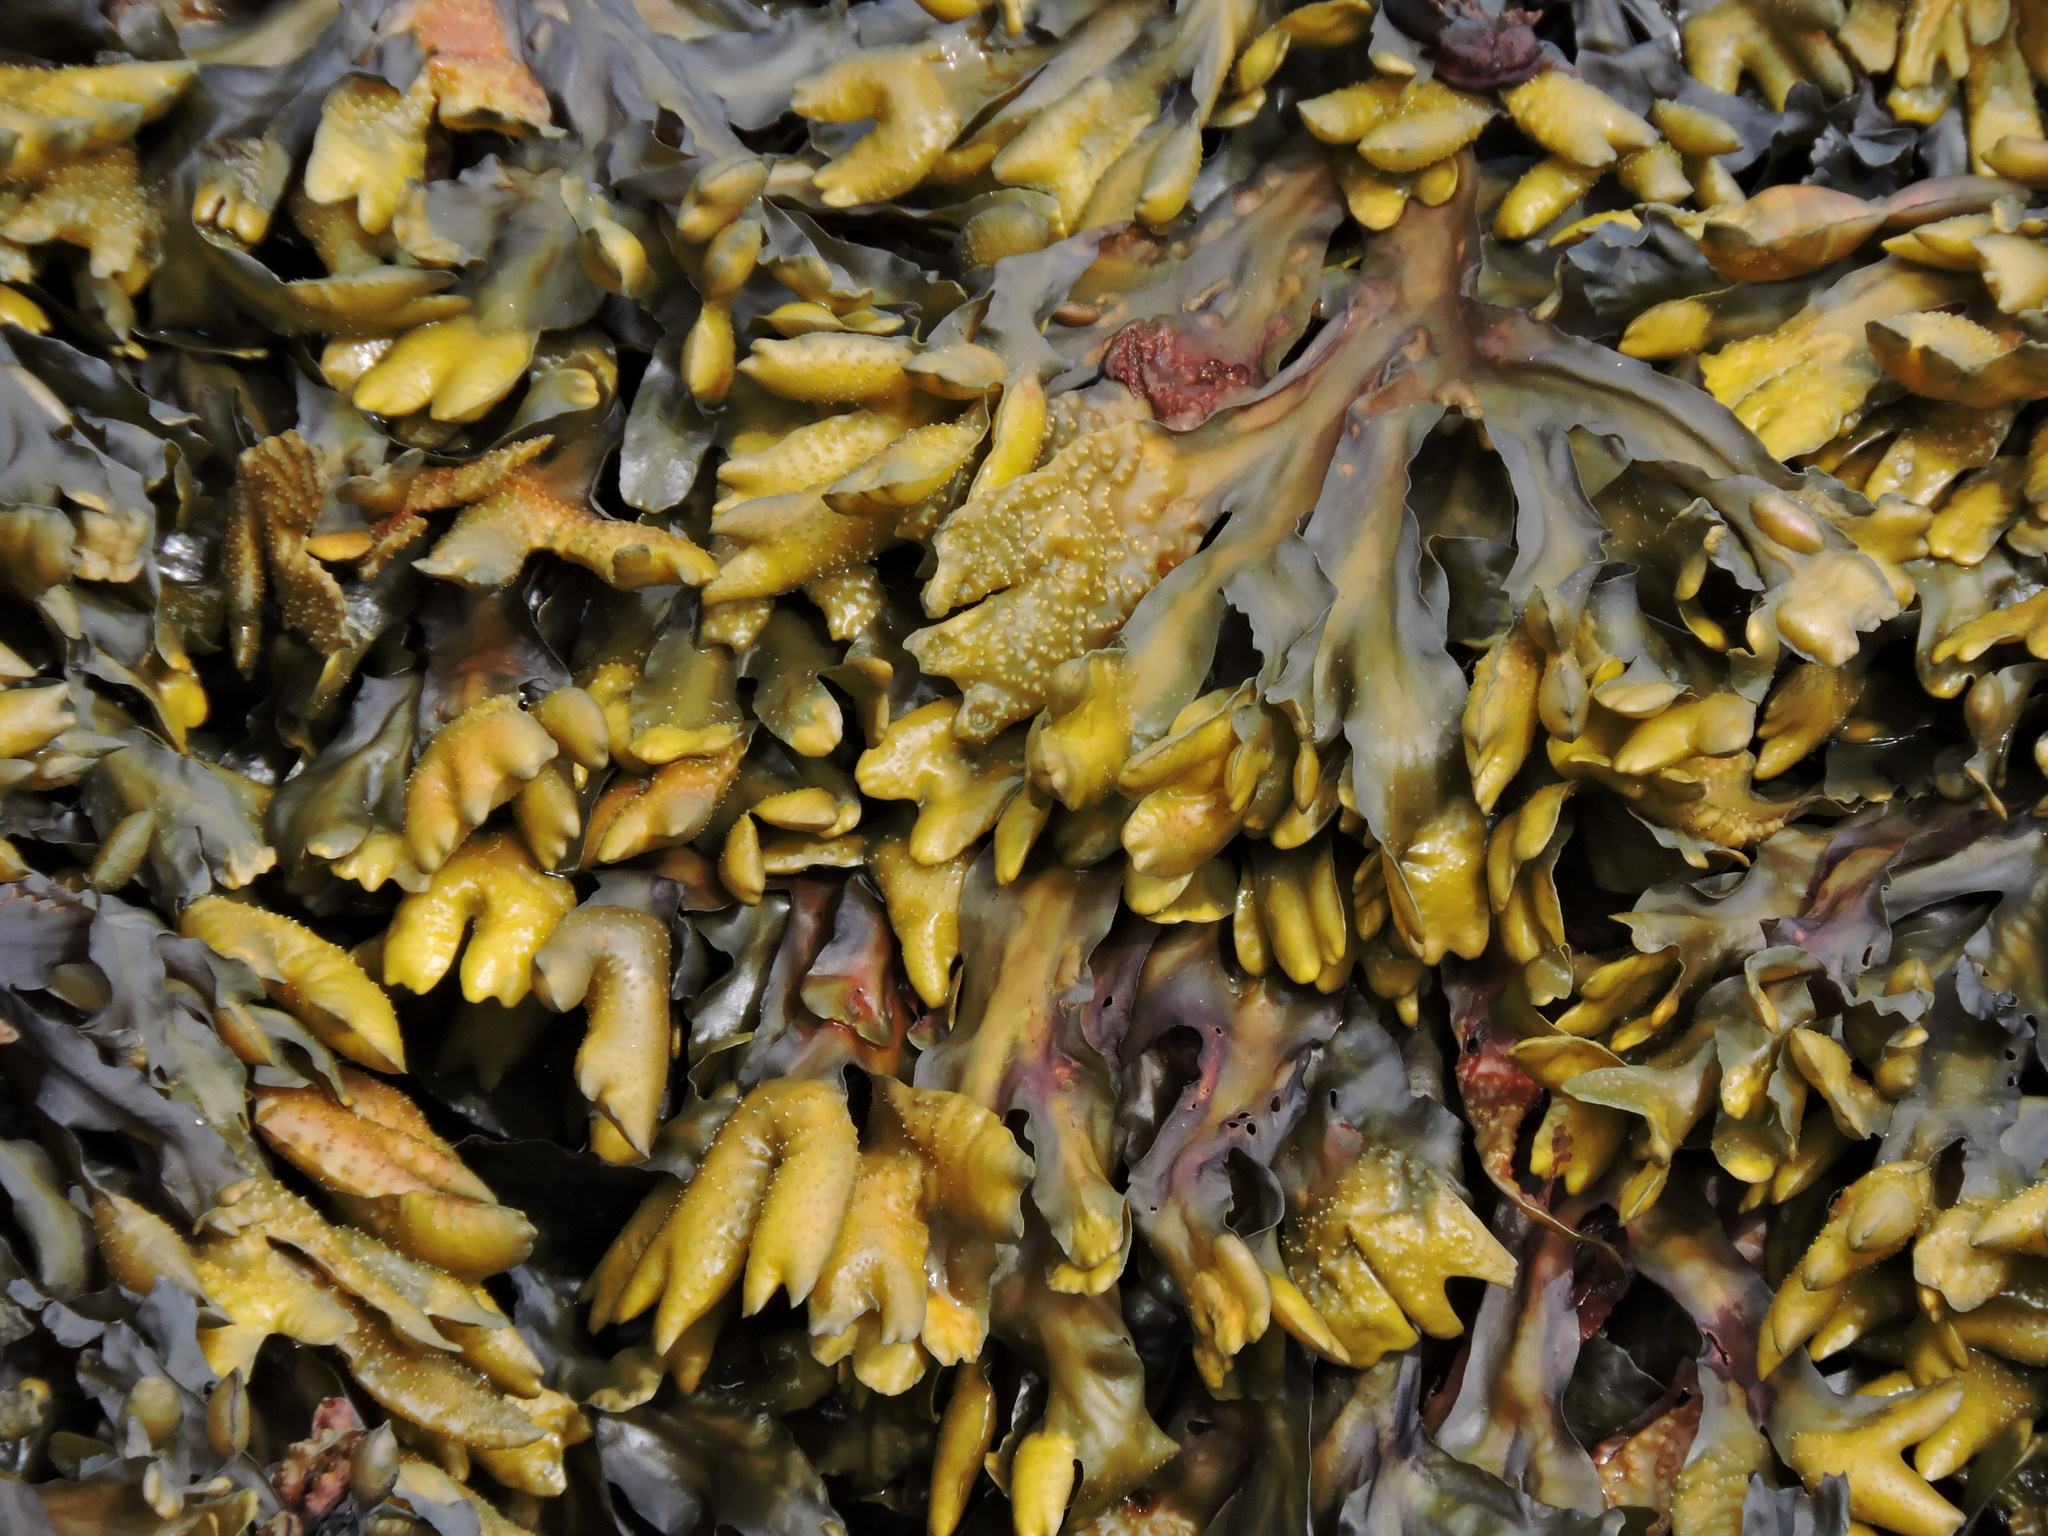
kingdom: Chromista
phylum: Ochrophyta
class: Phaeophyceae
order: Fucales
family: Fucaceae
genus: Fucus
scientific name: Fucus distichus
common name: Rockweed
